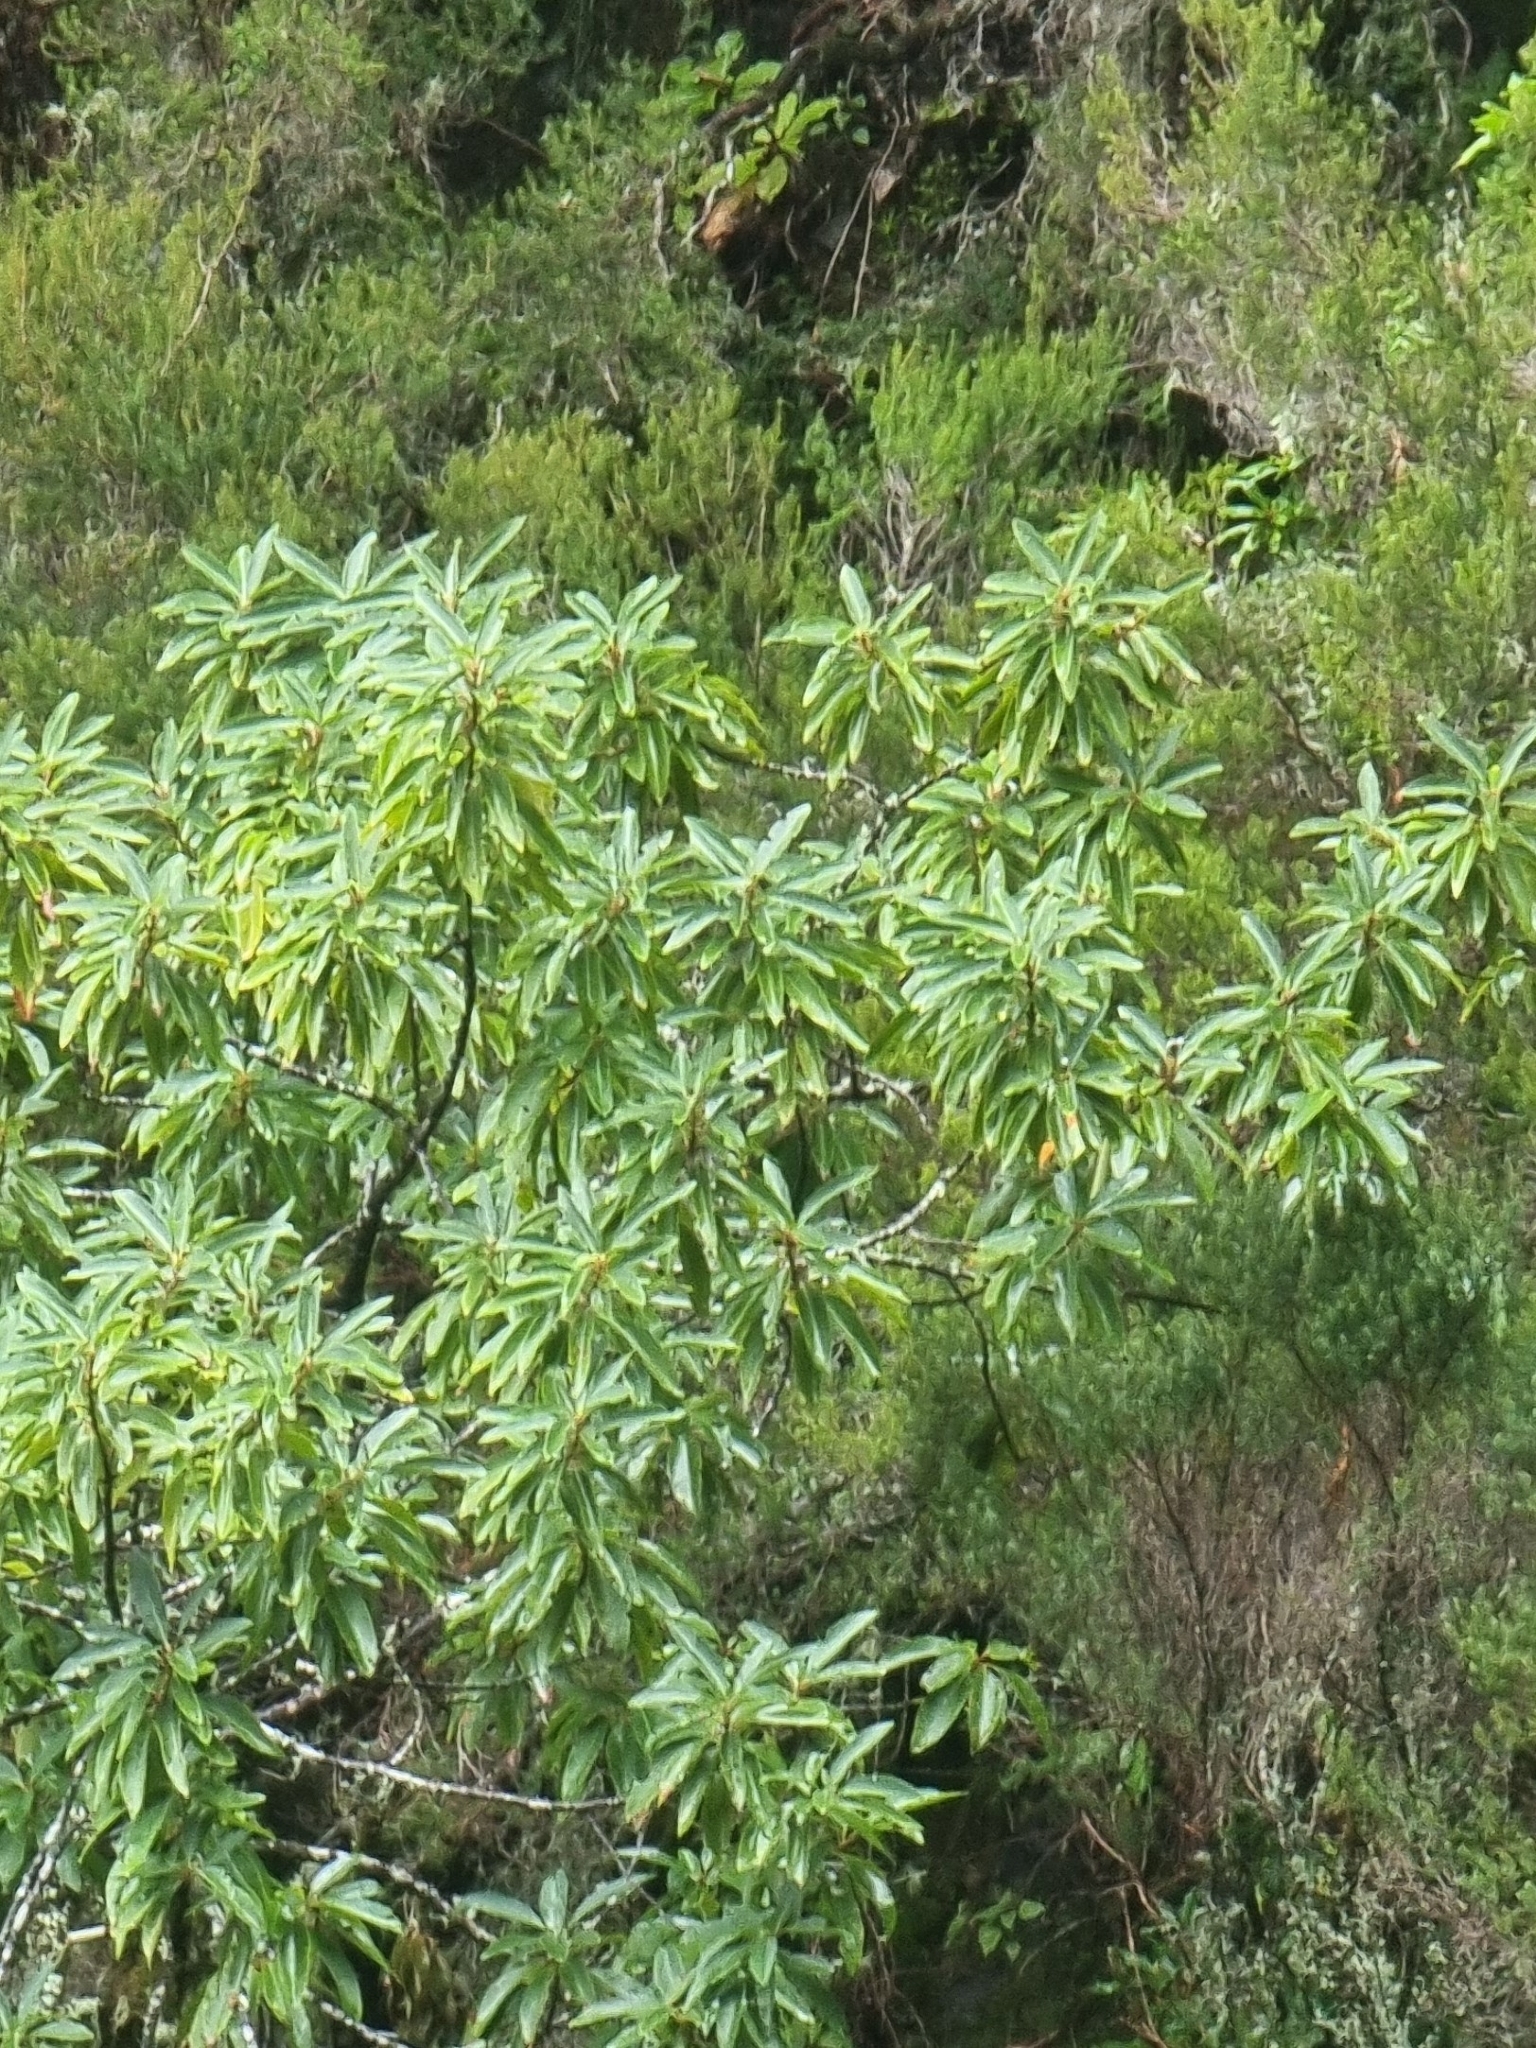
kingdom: Plantae
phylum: Tracheophyta
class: Magnoliopsida
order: Laurales
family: Lauraceae
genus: Persea
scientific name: Persea indica
